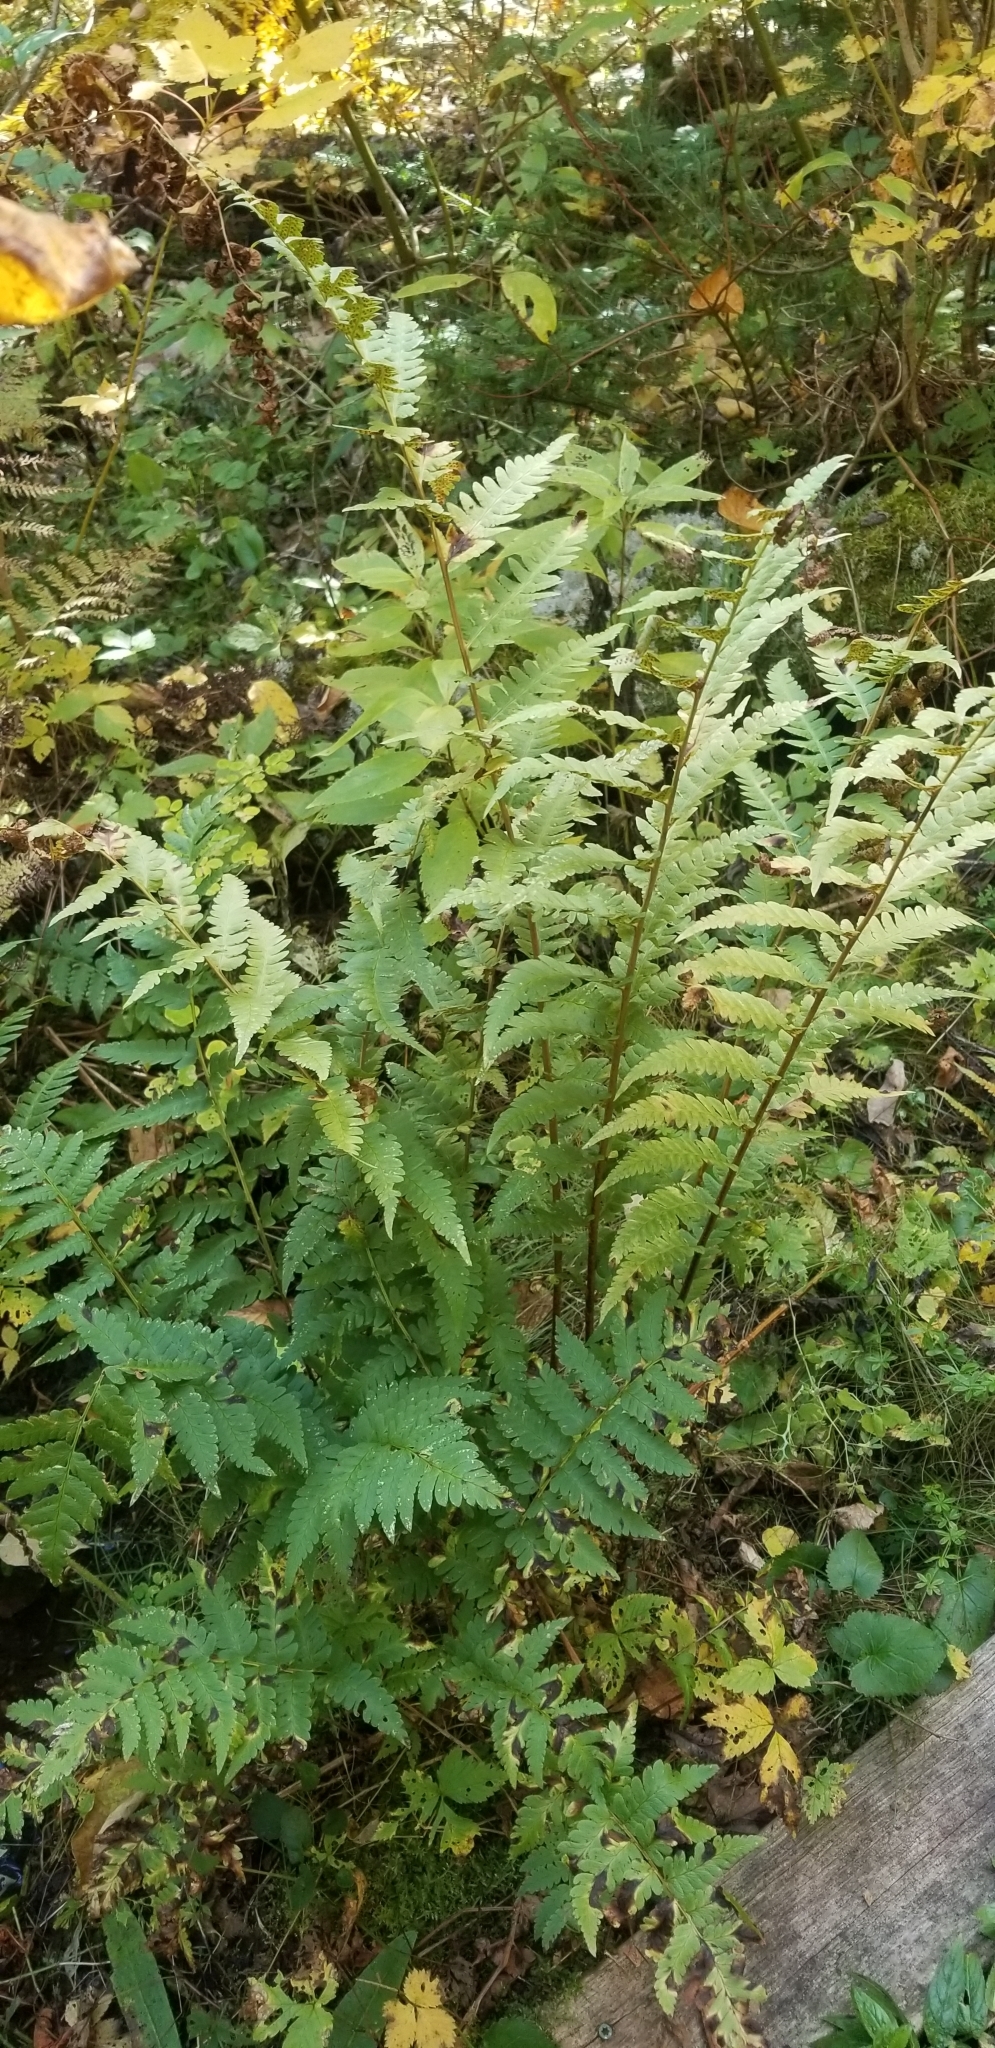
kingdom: Plantae
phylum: Tracheophyta
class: Polypodiopsida
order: Polypodiales
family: Dryopteridaceae
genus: Dryopteris
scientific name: Dryopteris clintoniana
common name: Clinton's wood fern
